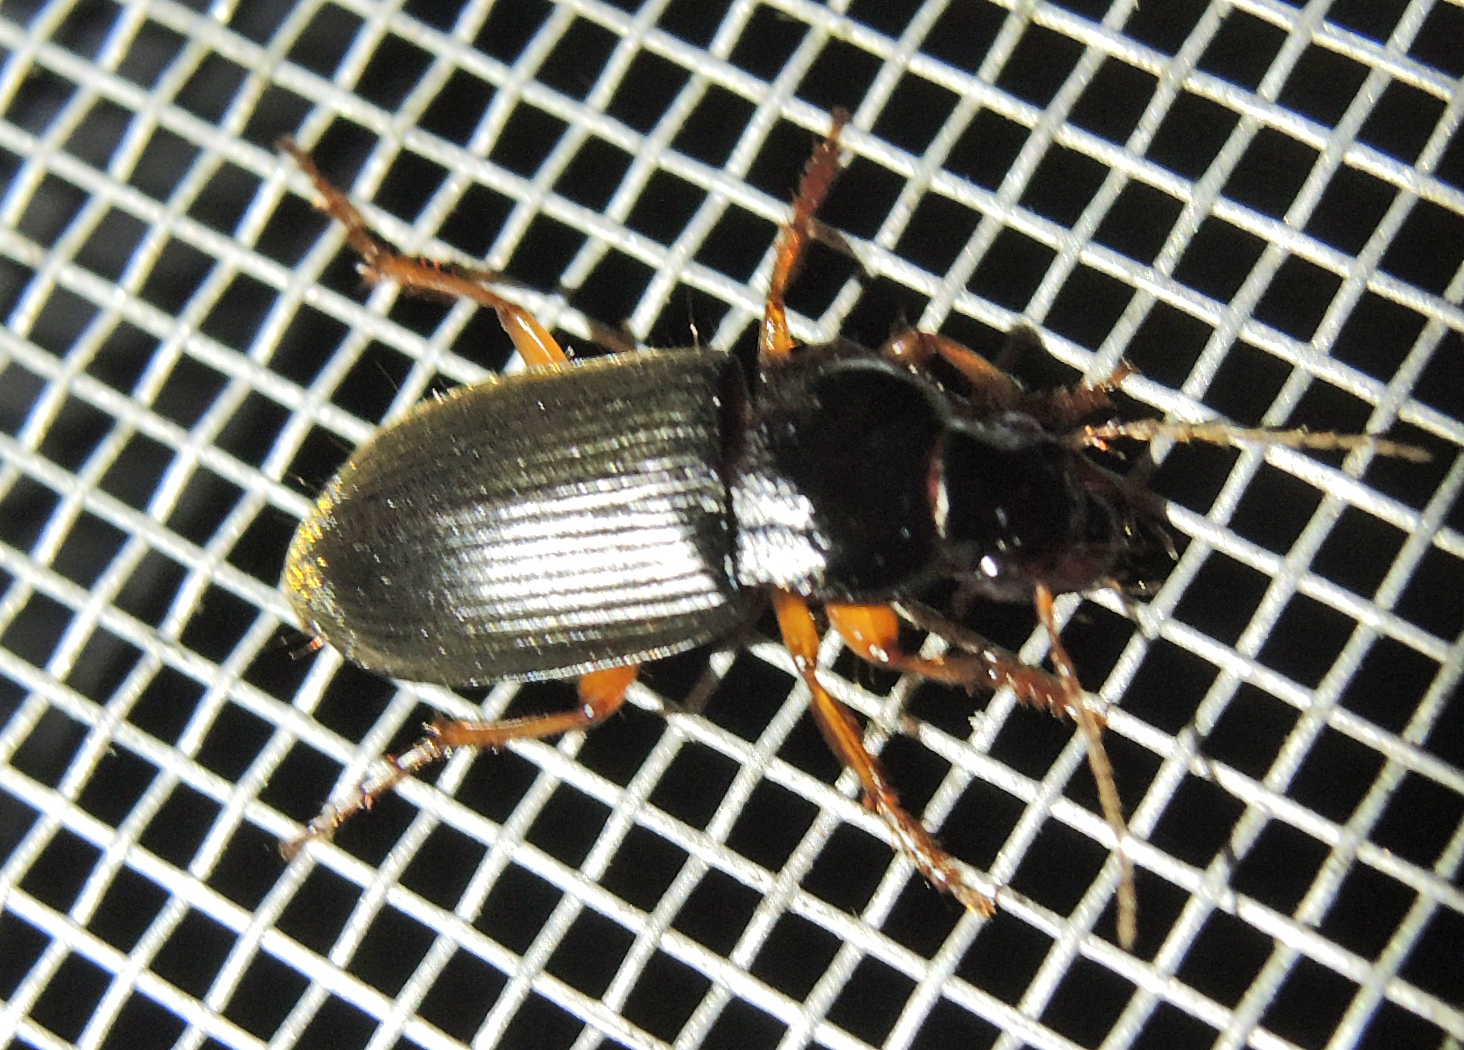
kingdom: Animalia
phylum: Arthropoda
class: Insecta
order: Coleoptera
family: Carabidae
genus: Harpalus
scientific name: Harpalus rufipes
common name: Strawberry harp ground beetle
